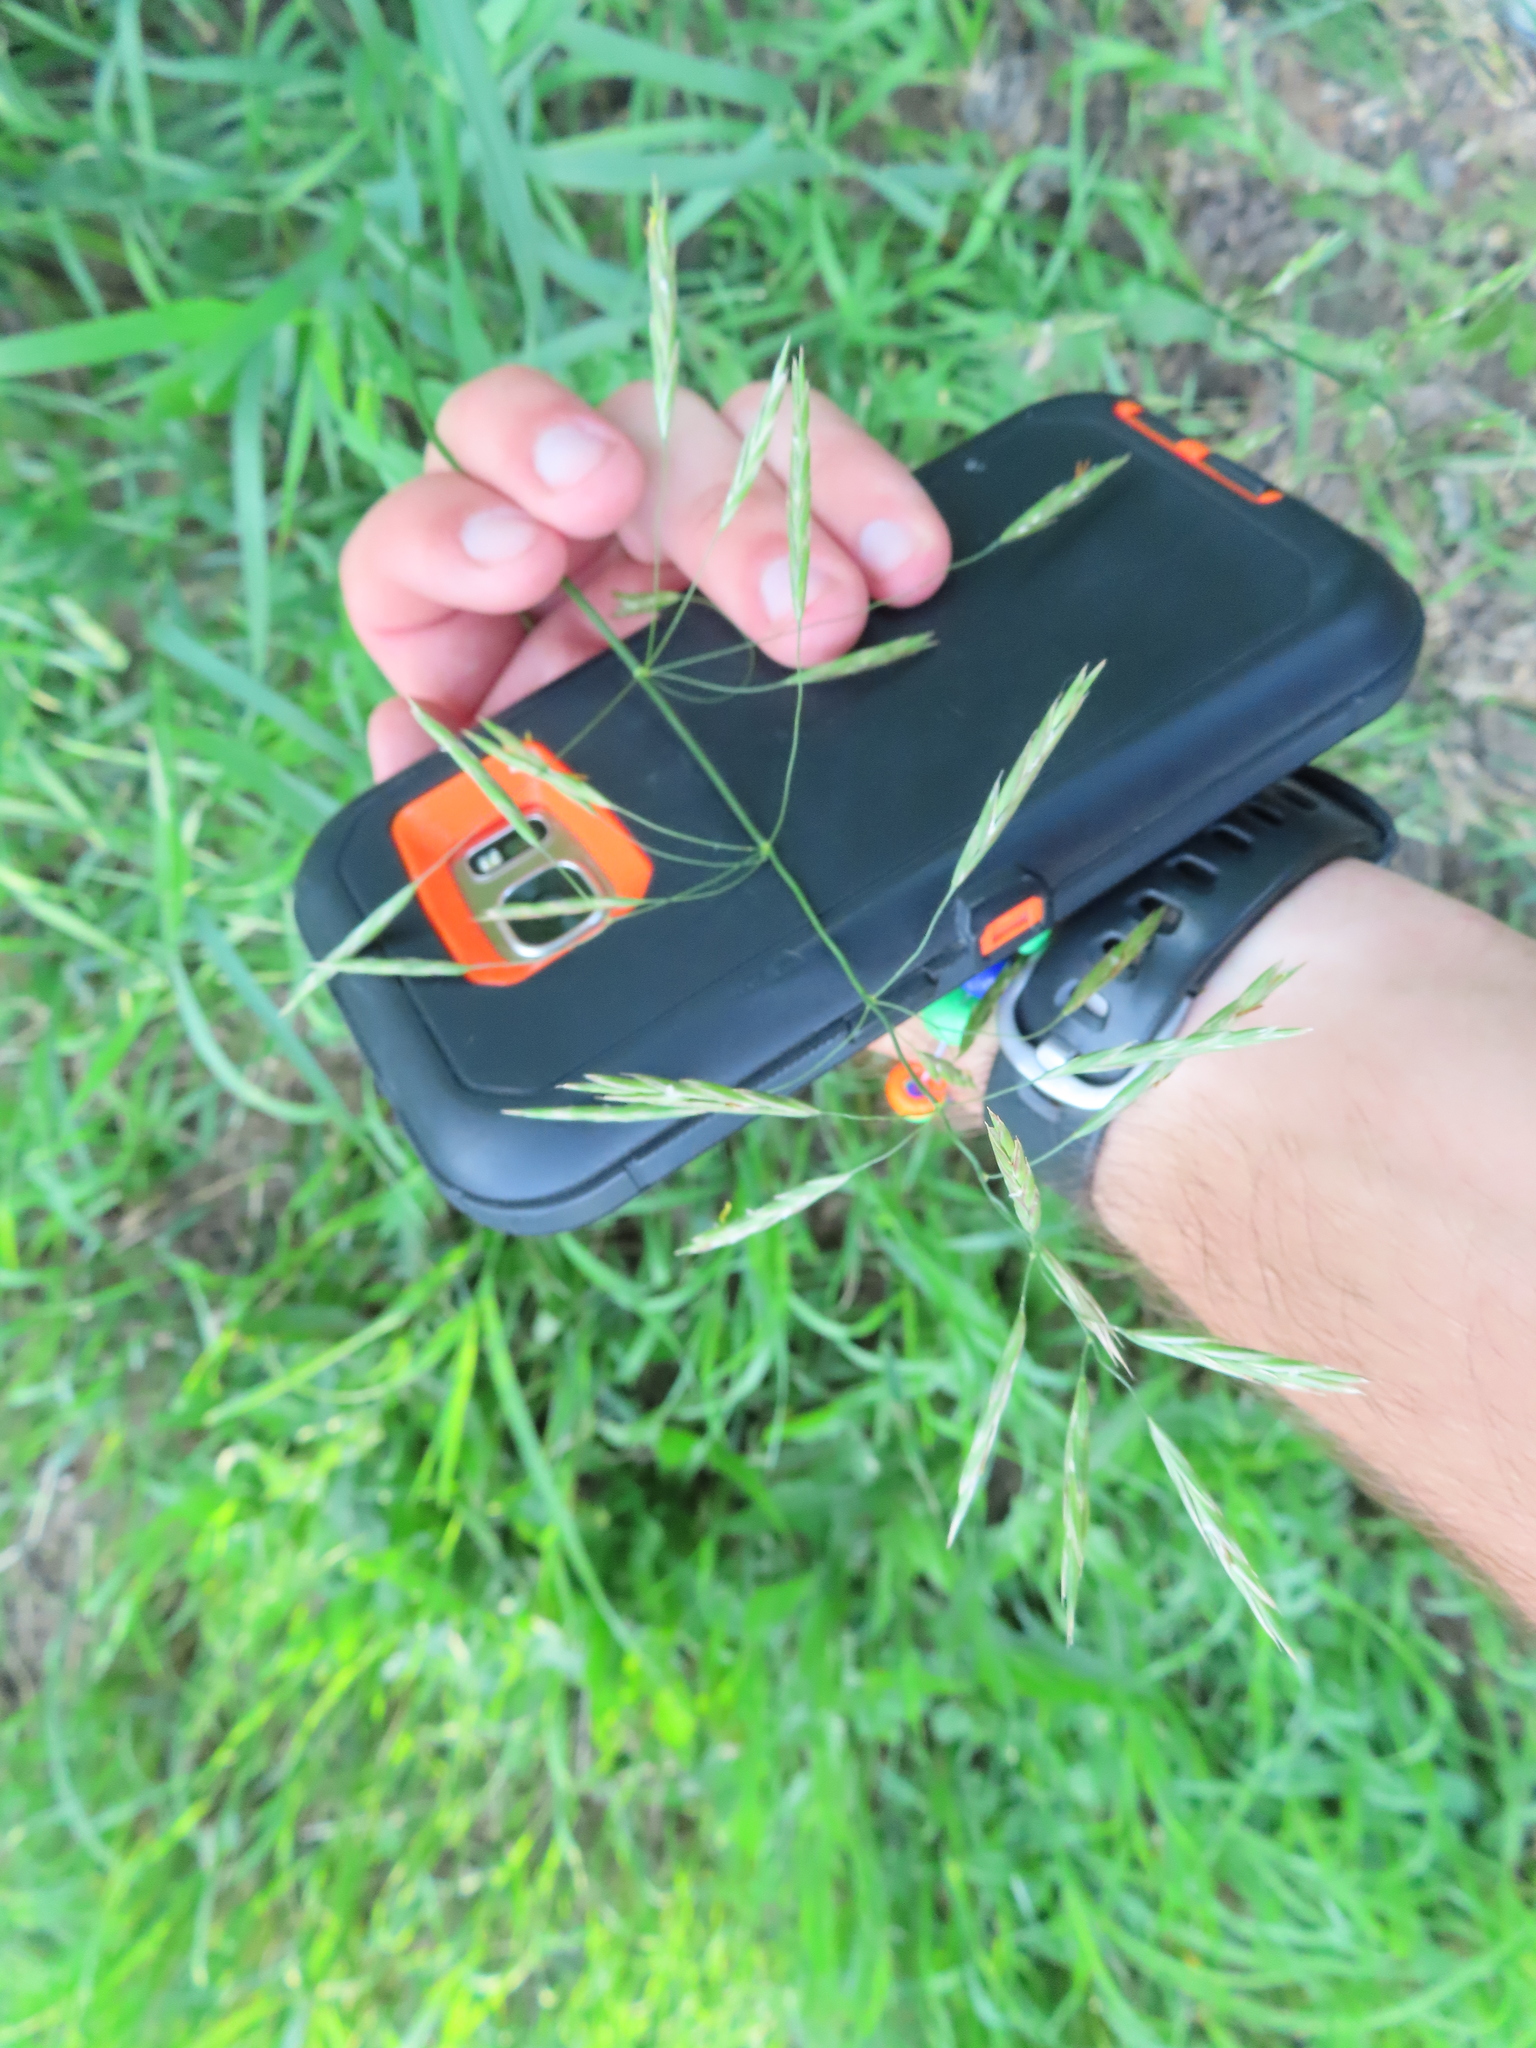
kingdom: Plantae
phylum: Tracheophyta
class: Liliopsida
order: Poales
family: Poaceae
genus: Bromus
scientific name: Bromus inermis
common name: Smooth brome
